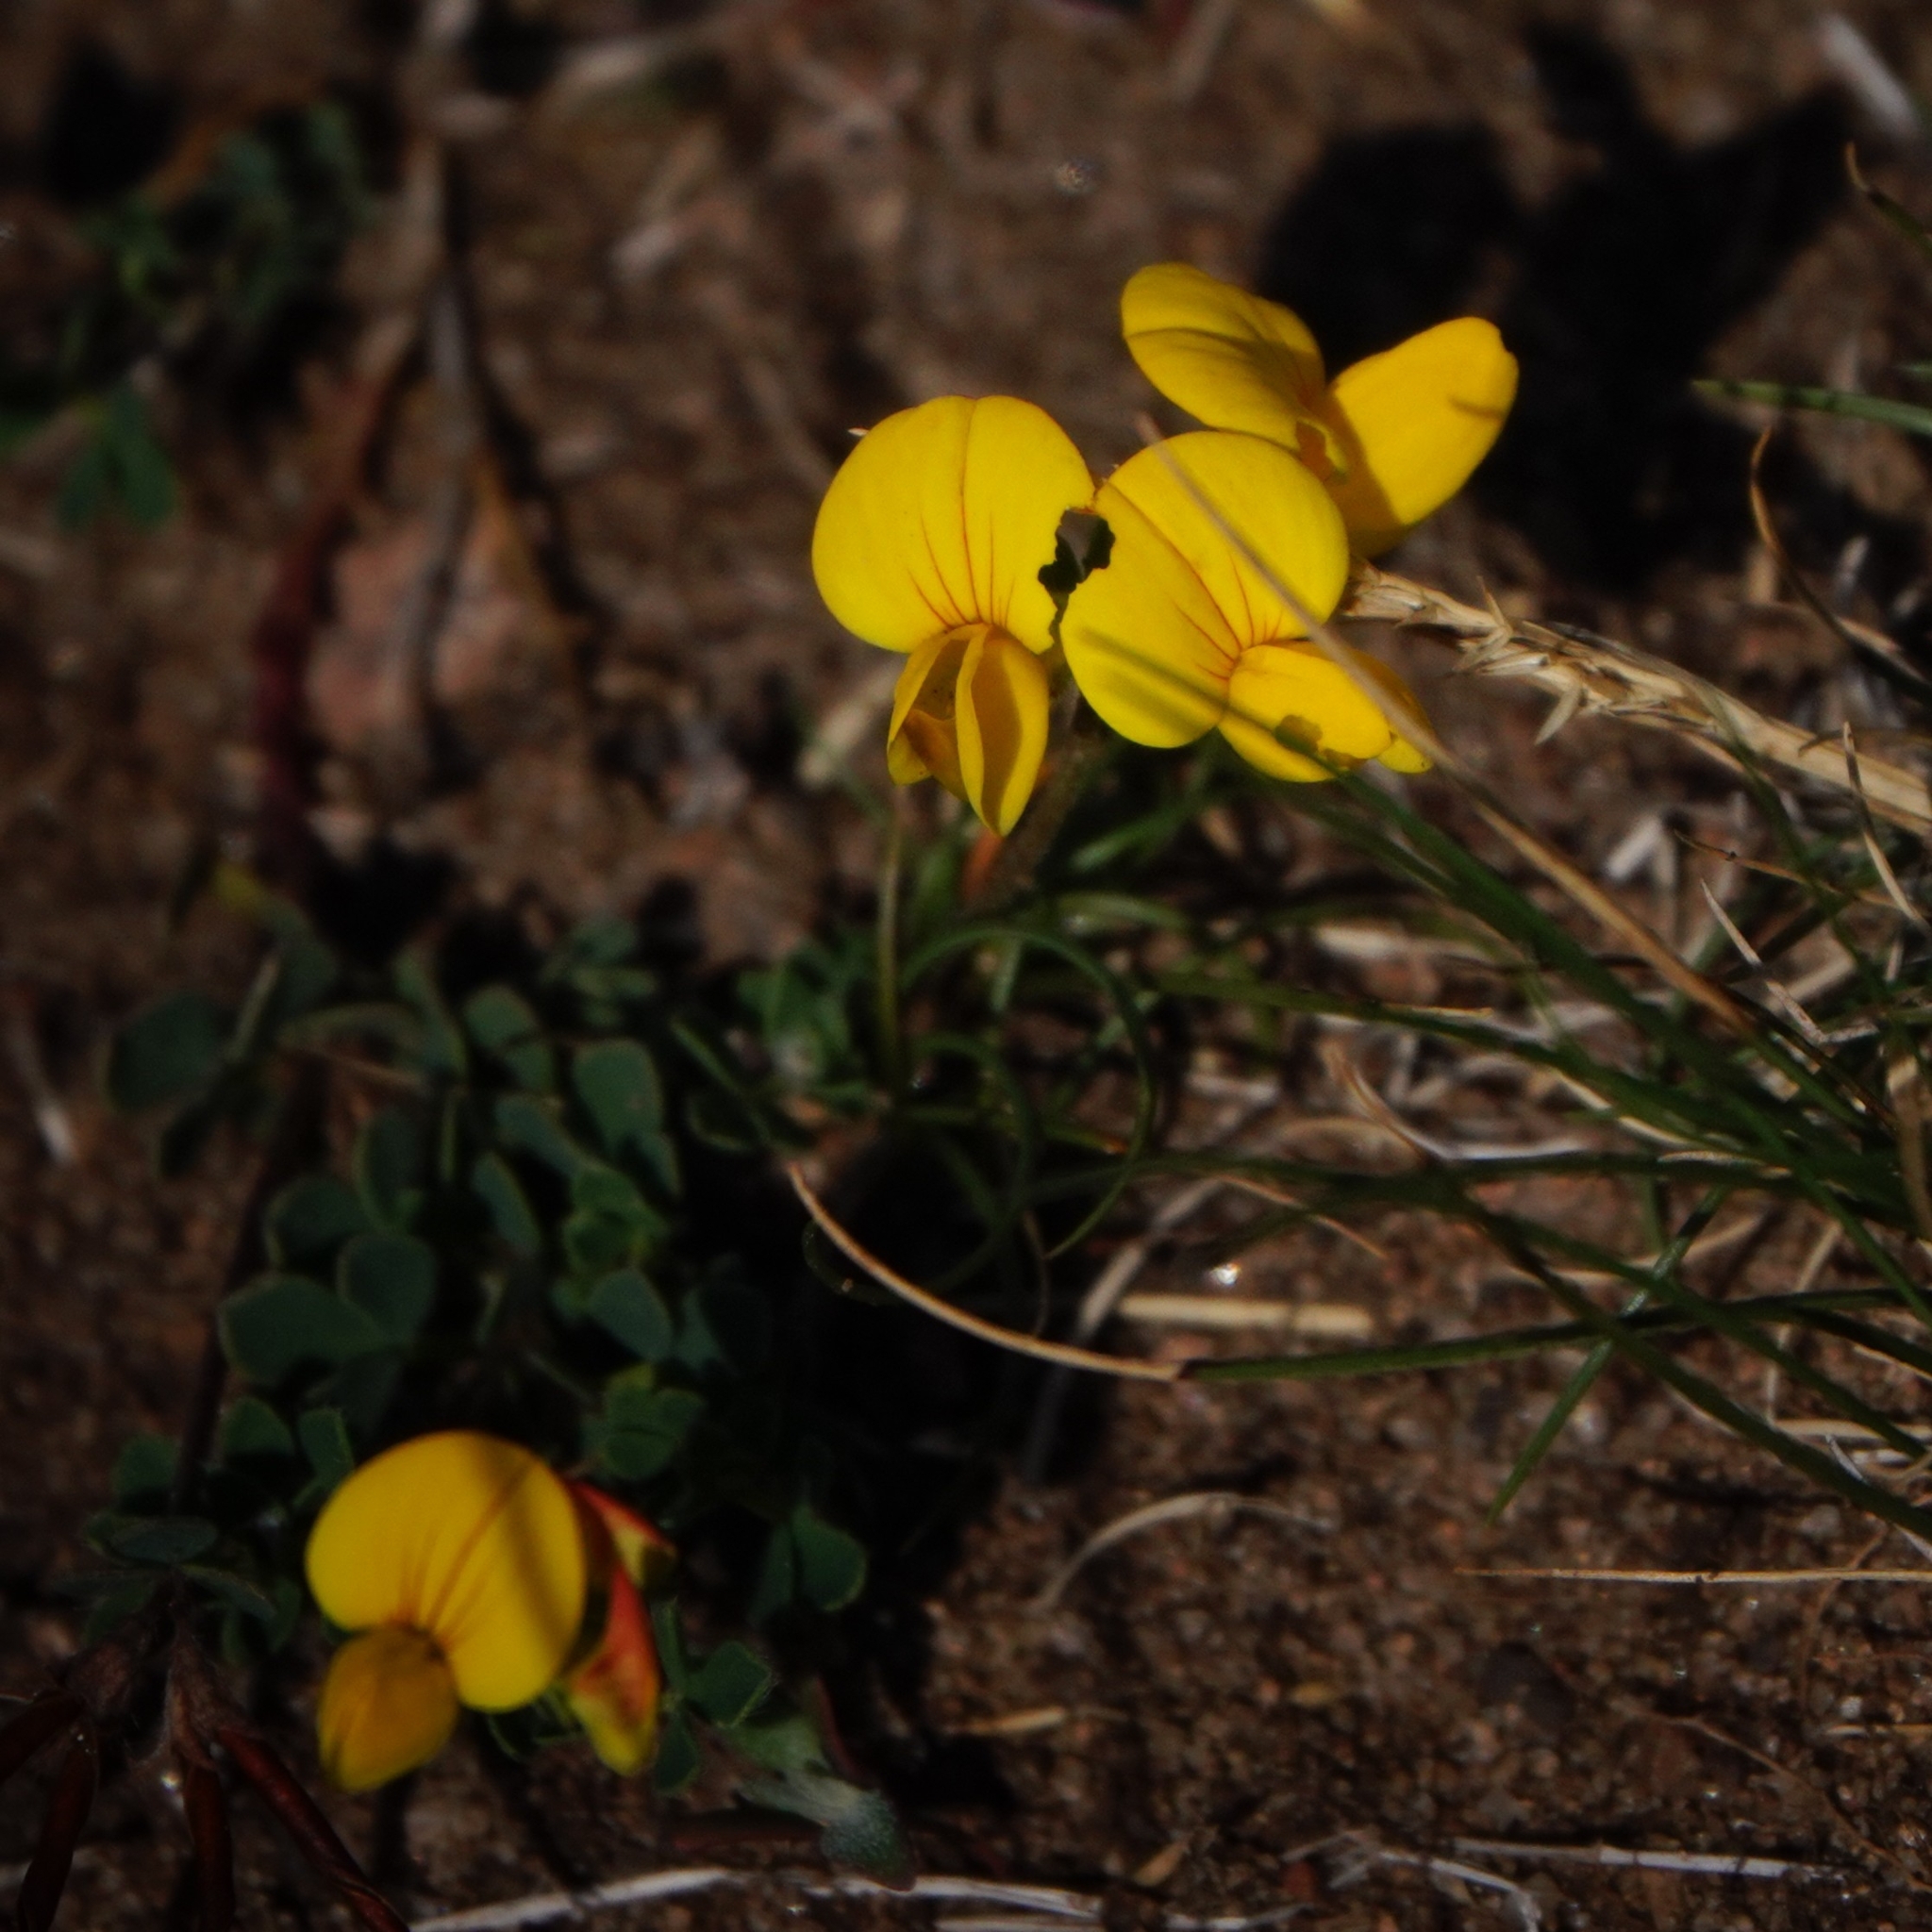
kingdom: Plantae
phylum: Tracheophyta
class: Magnoliopsida
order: Fabales
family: Fabaceae
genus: Lotus
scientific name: Lotus corniculatus
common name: Common bird's-foot-trefoil
